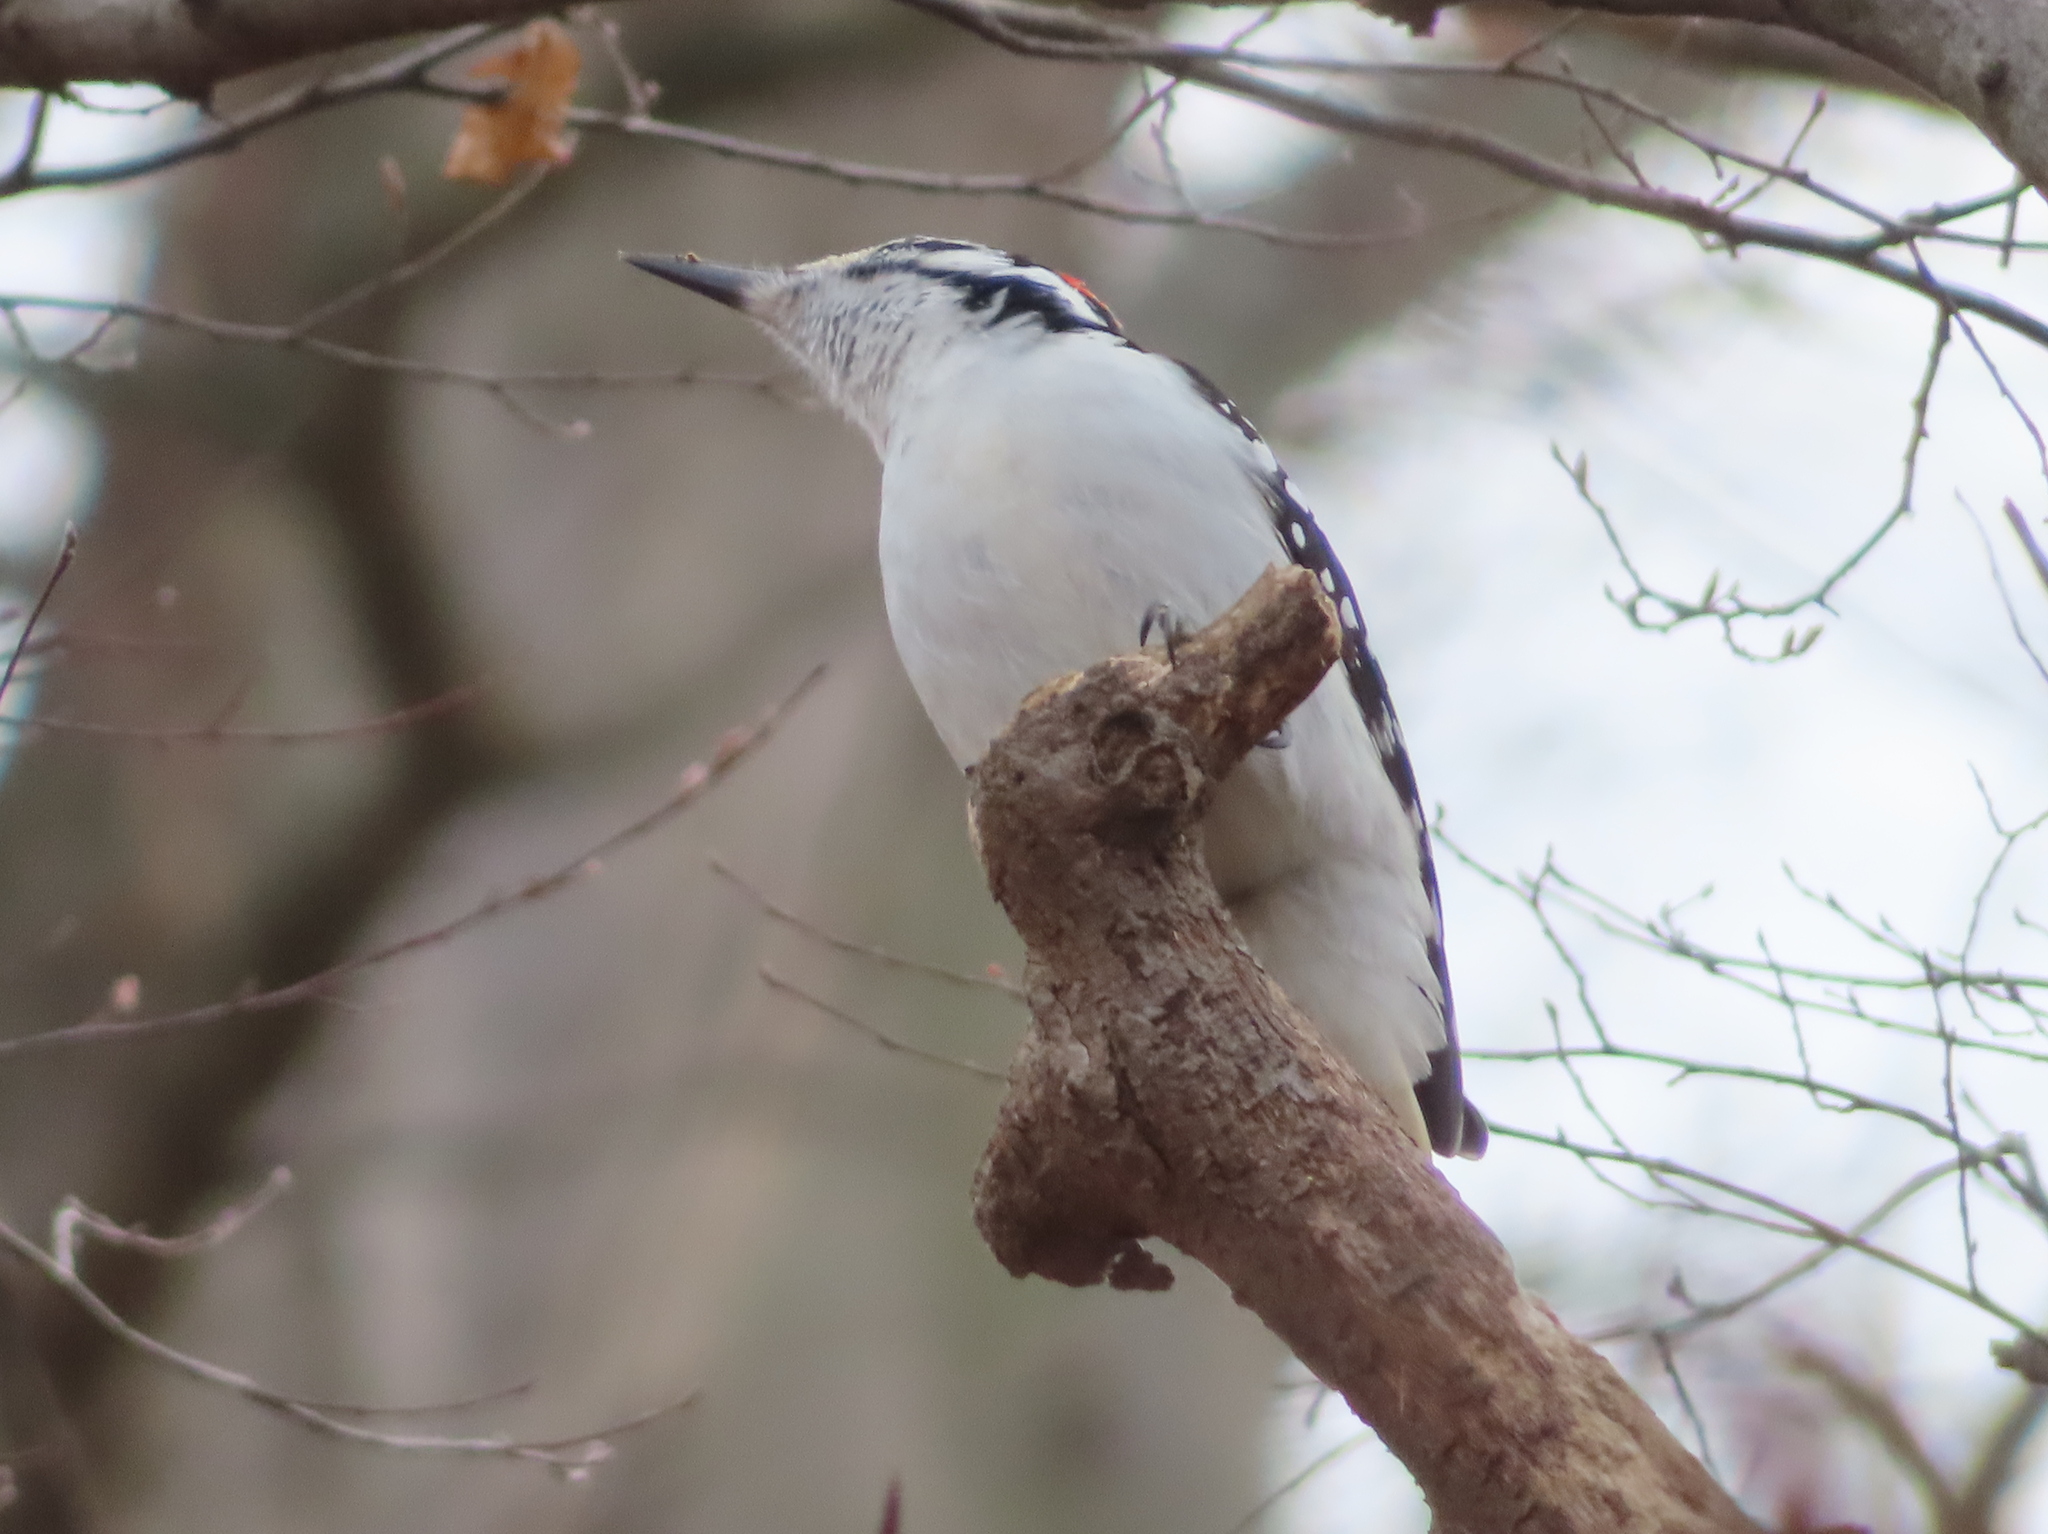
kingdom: Animalia
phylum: Chordata
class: Aves
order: Piciformes
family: Picidae
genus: Leuconotopicus
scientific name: Leuconotopicus villosus
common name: Hairy woodpecker
